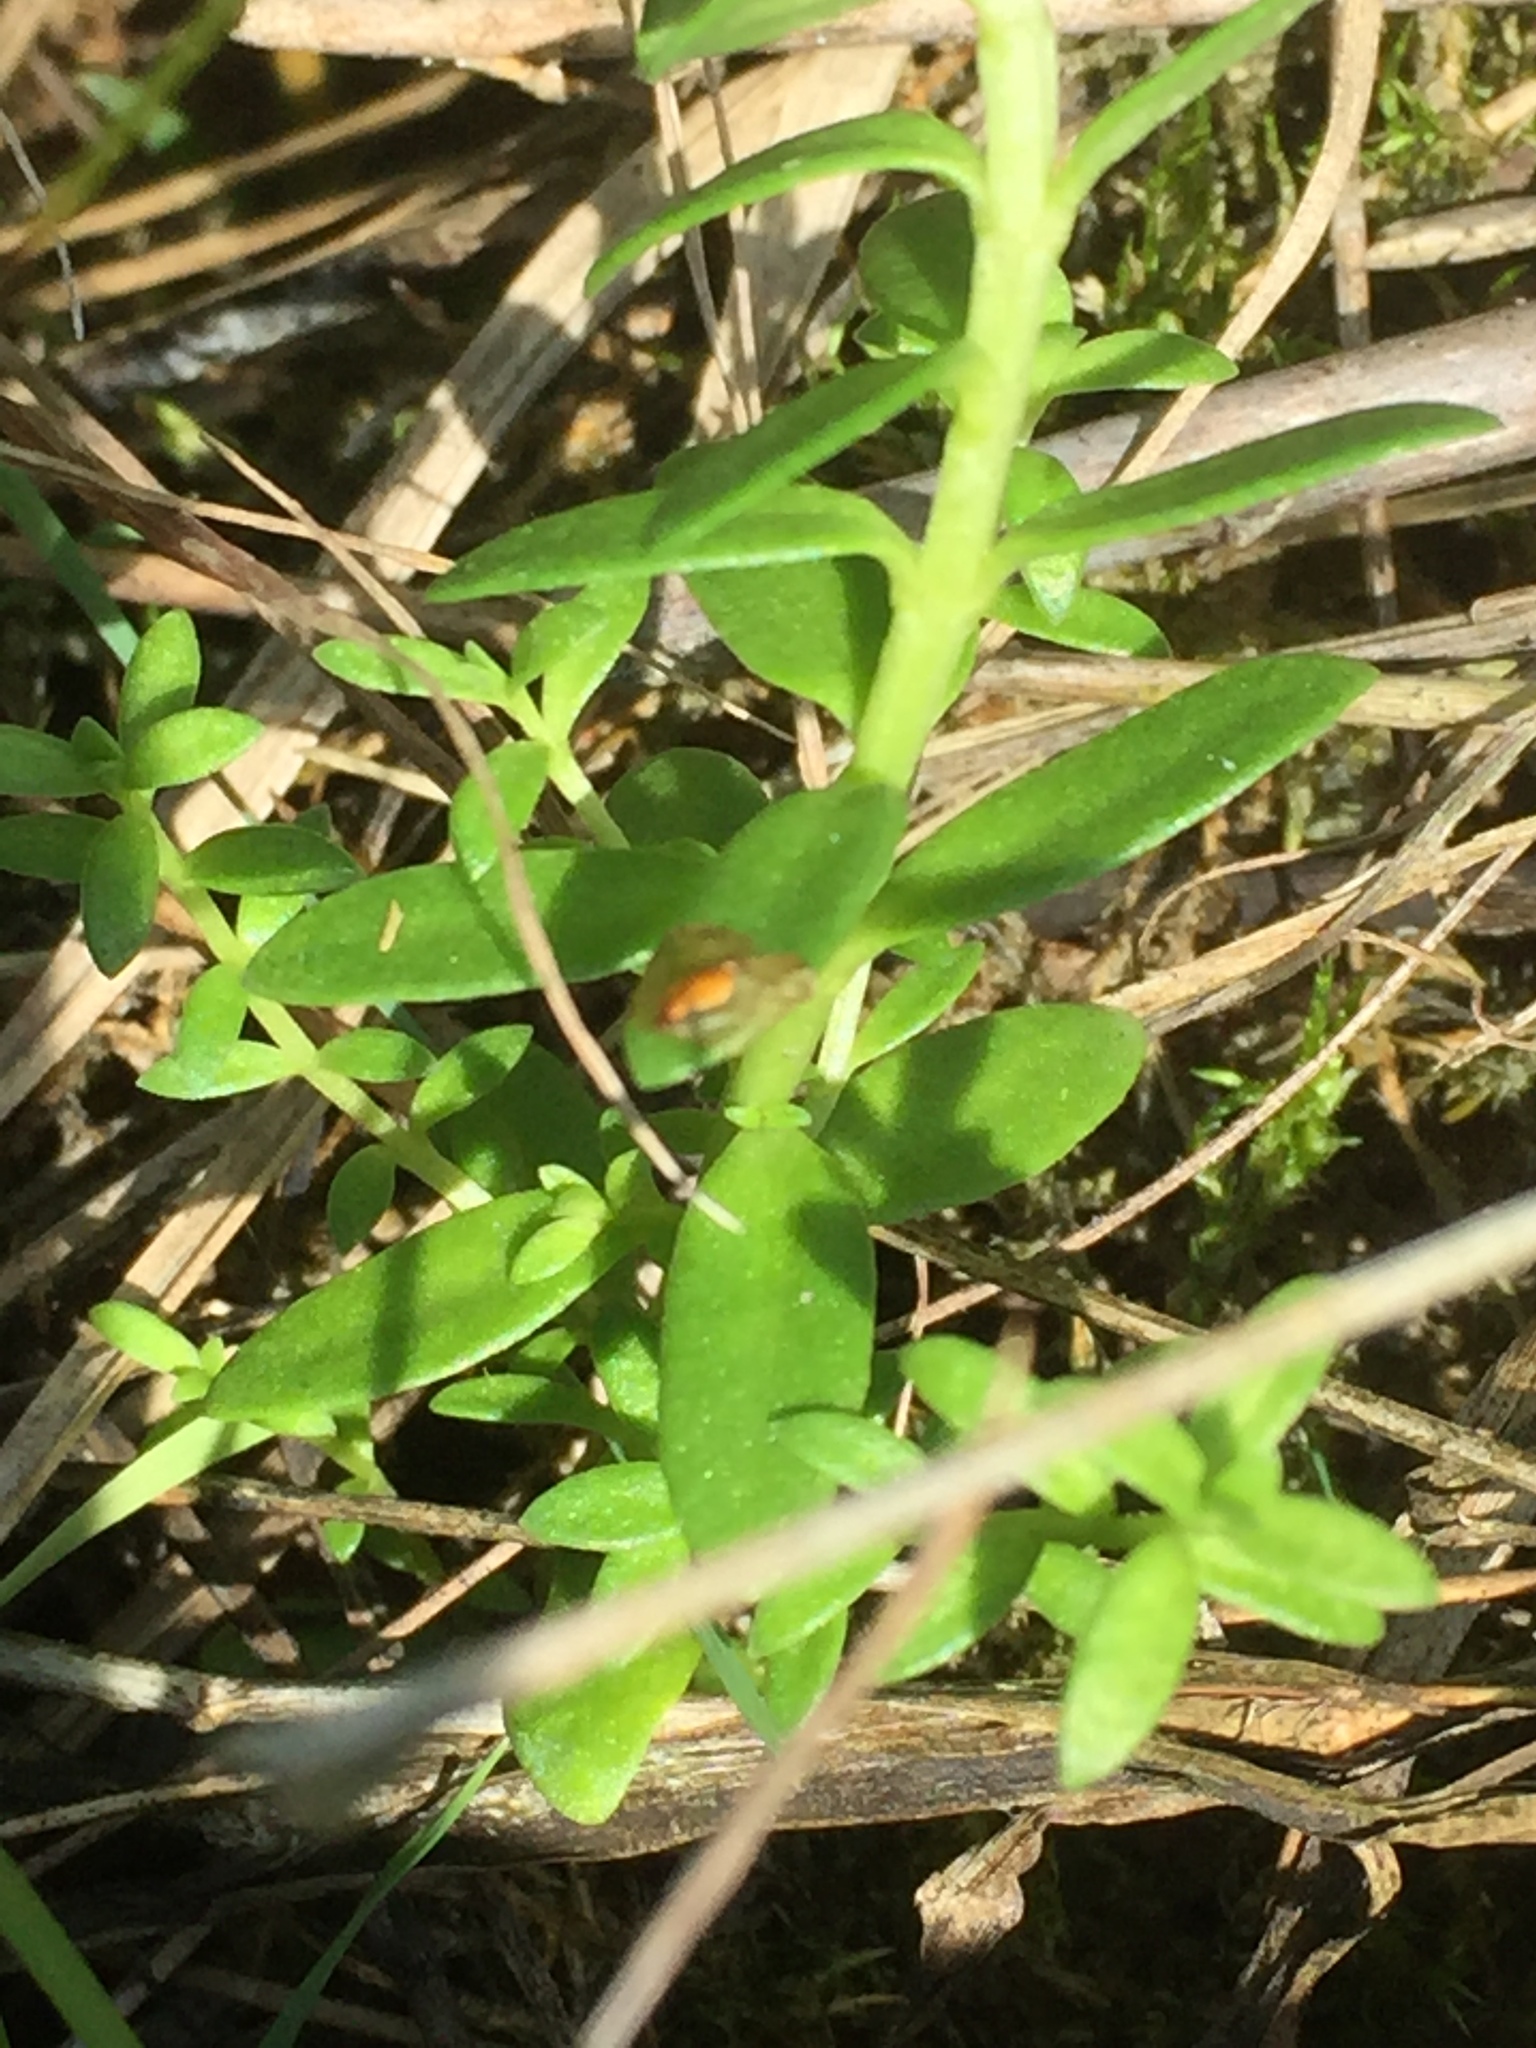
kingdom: Plantae
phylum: Tracheophyta
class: Magnoliopsida
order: Ericales
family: Primulaceae
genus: Lysimachia
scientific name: Lysimachia maritima
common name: Sea milkwort
